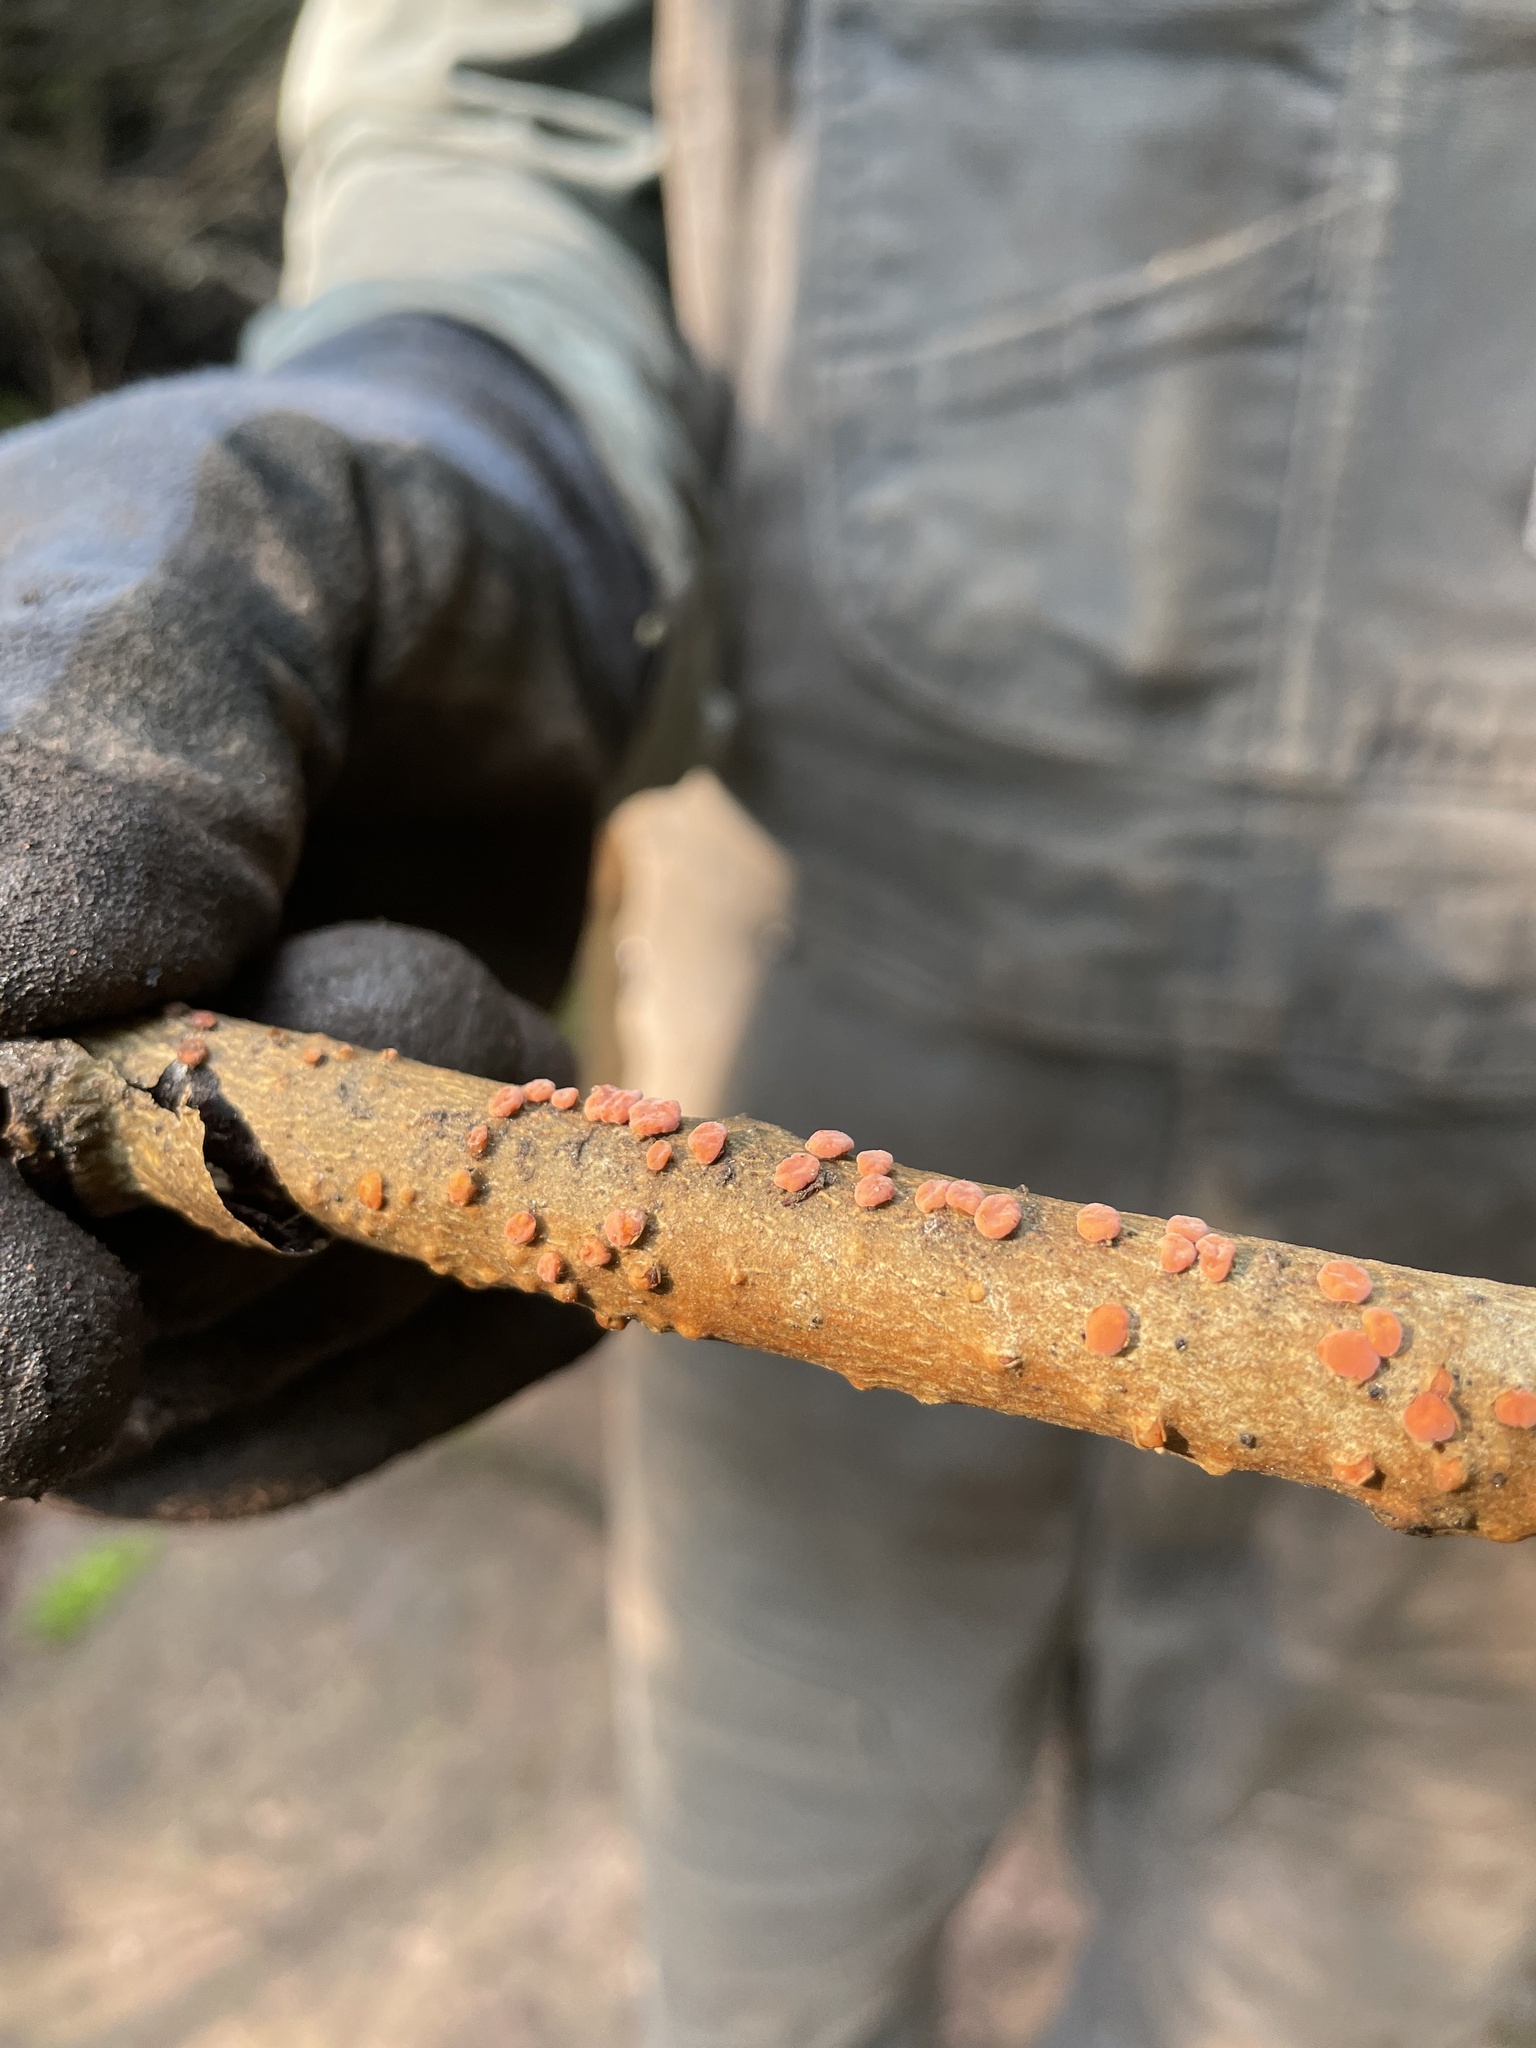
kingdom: Fungi
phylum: Basidiomycota
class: Agaricomycetes
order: Russulales
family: Peniophoraceae
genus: Peniophora
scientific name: Peniophora rufa
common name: Red tree brain fungus
